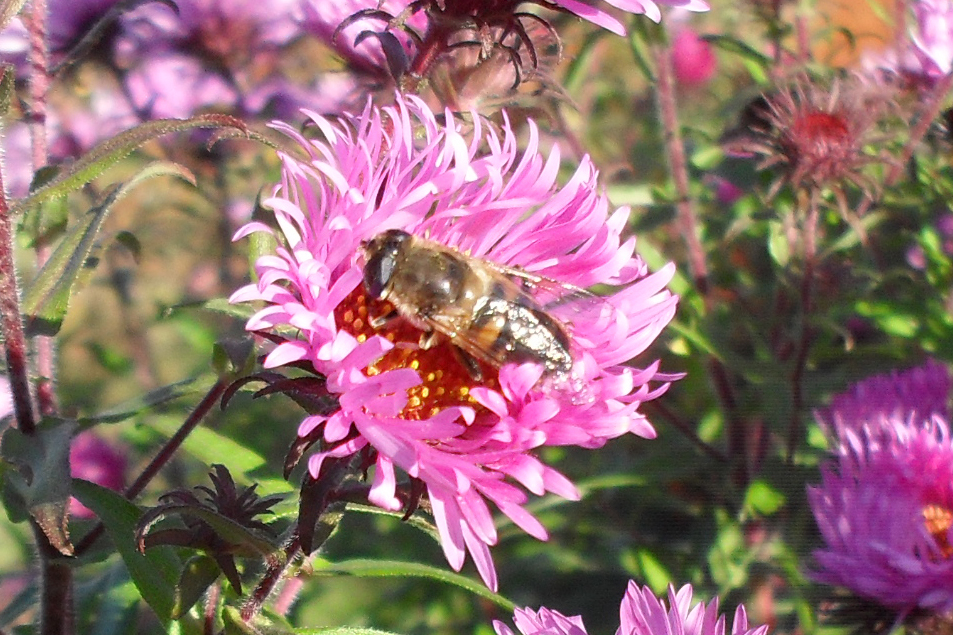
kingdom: Animalia
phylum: Arthropoda
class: Insecta
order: Diptera
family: Syrphidae
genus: Eristalis
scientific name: Eristalis tenax
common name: Drone fly
